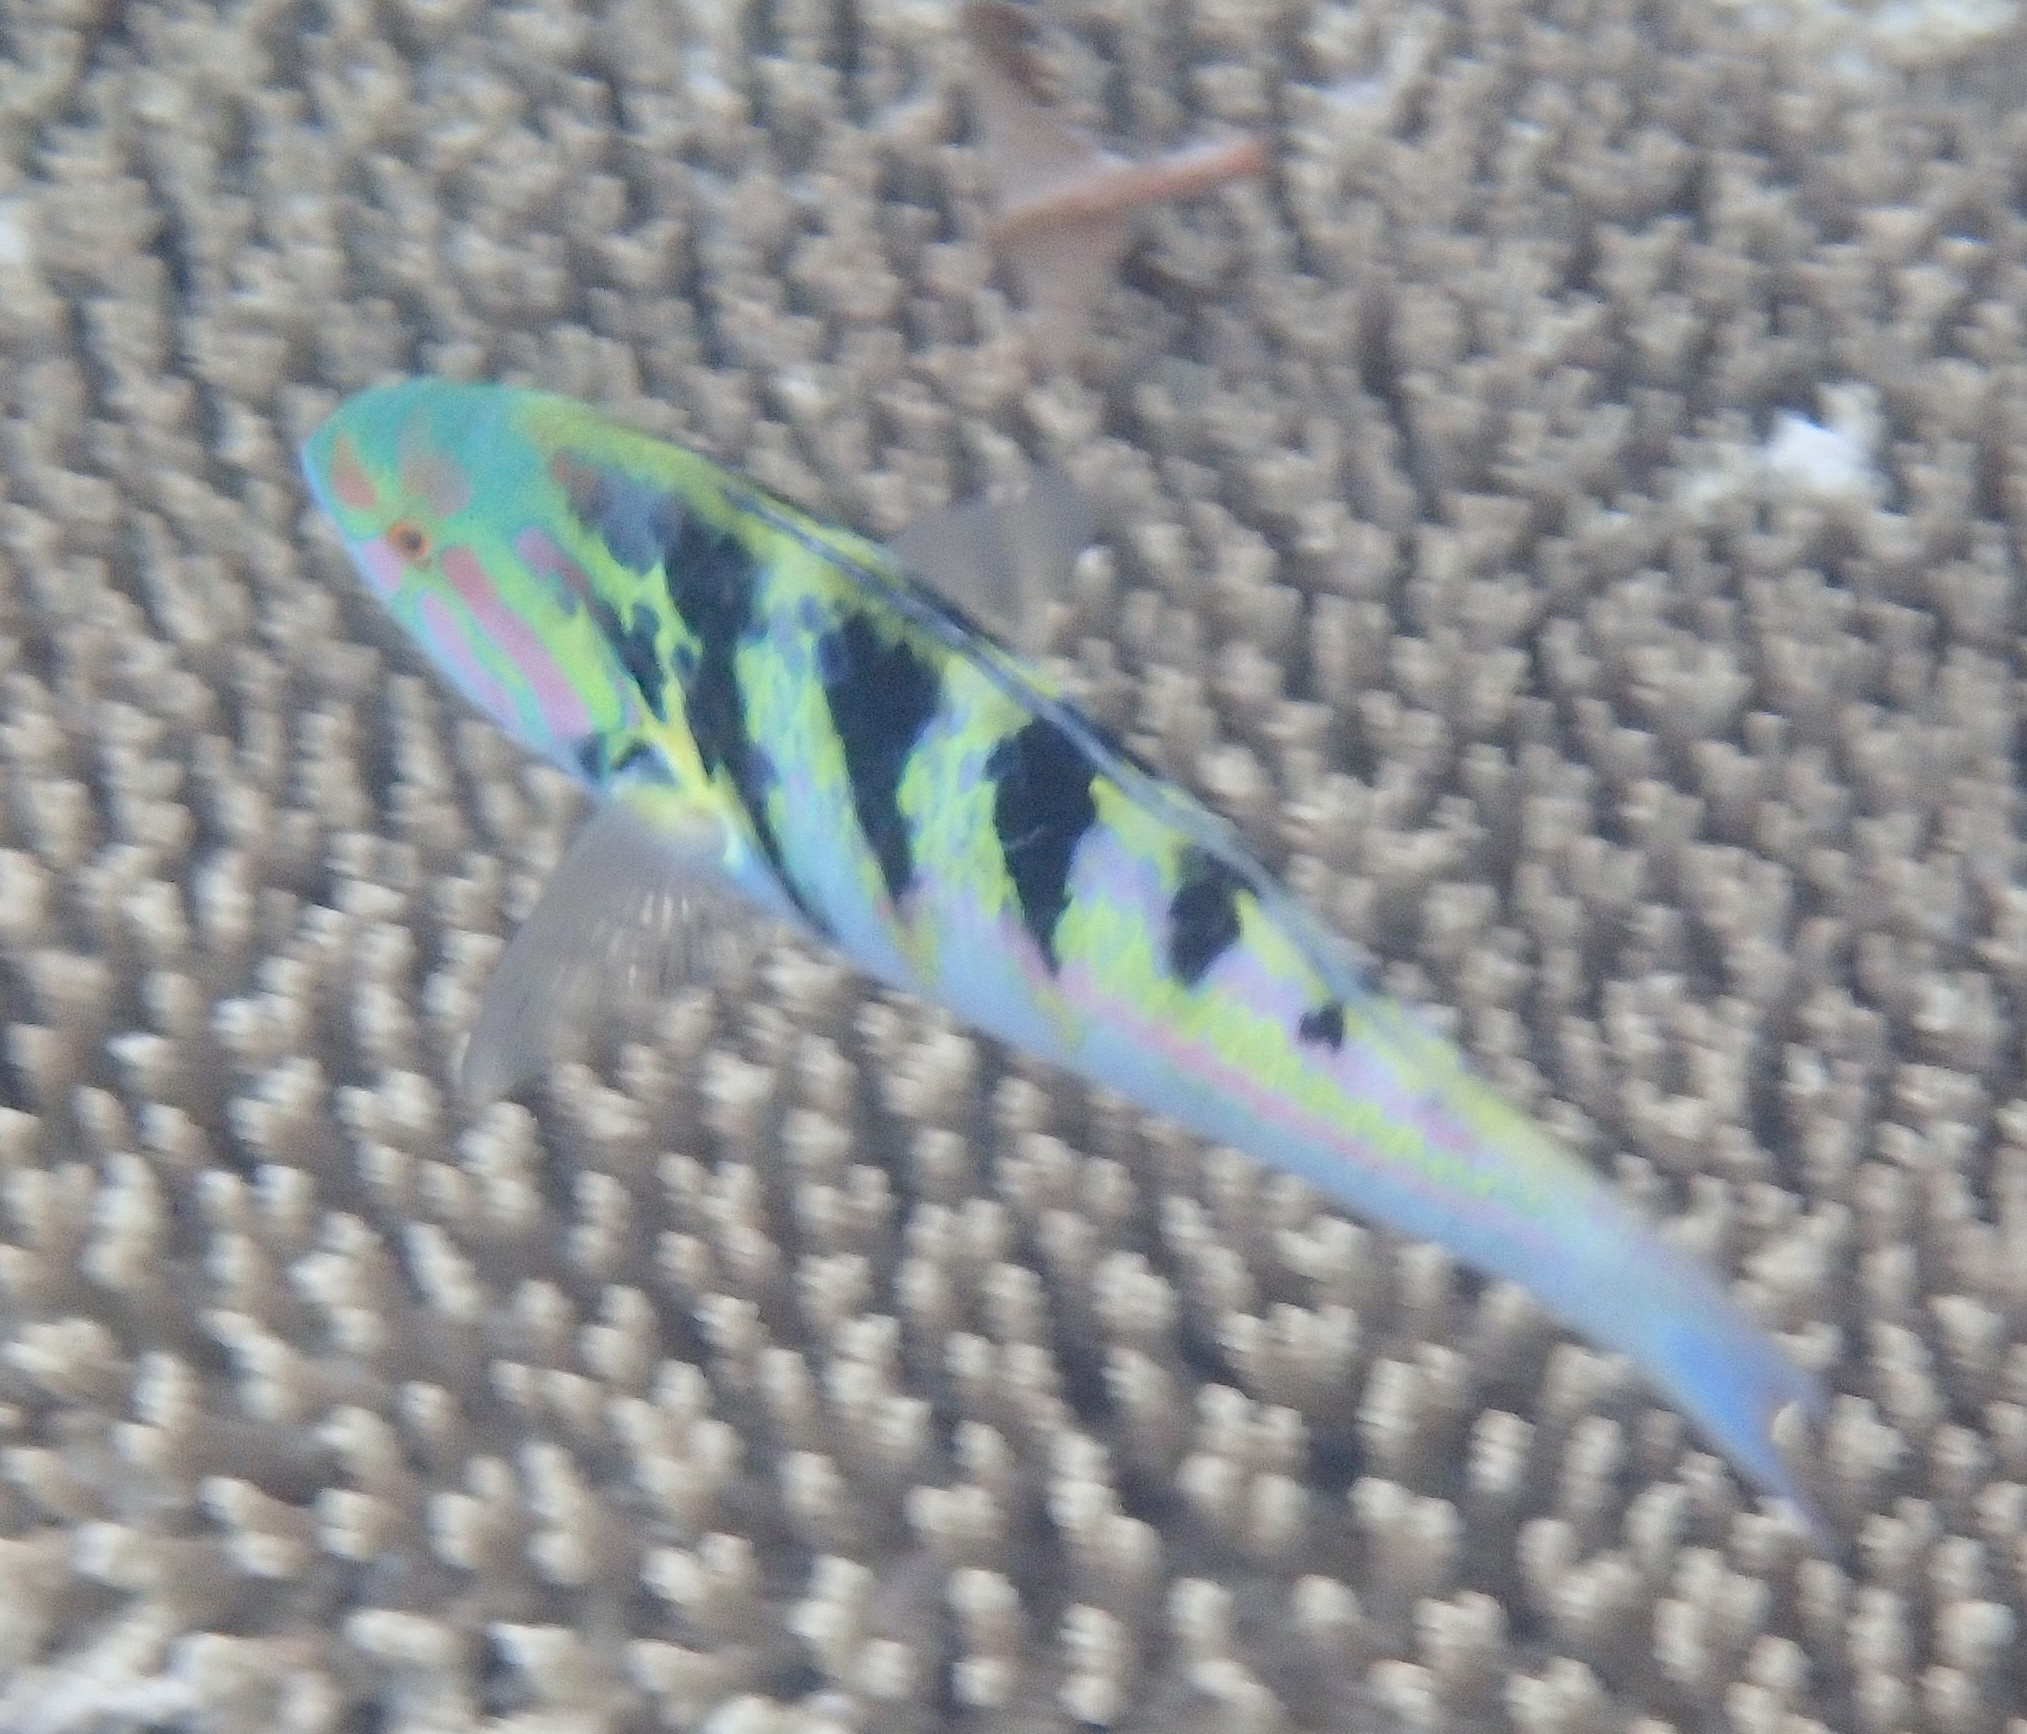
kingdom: Animalia
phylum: Chordata
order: Perciformes
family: Labridae
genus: Thalassoma
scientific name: Thalassoma hardwicke
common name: Sixbar wrasse
